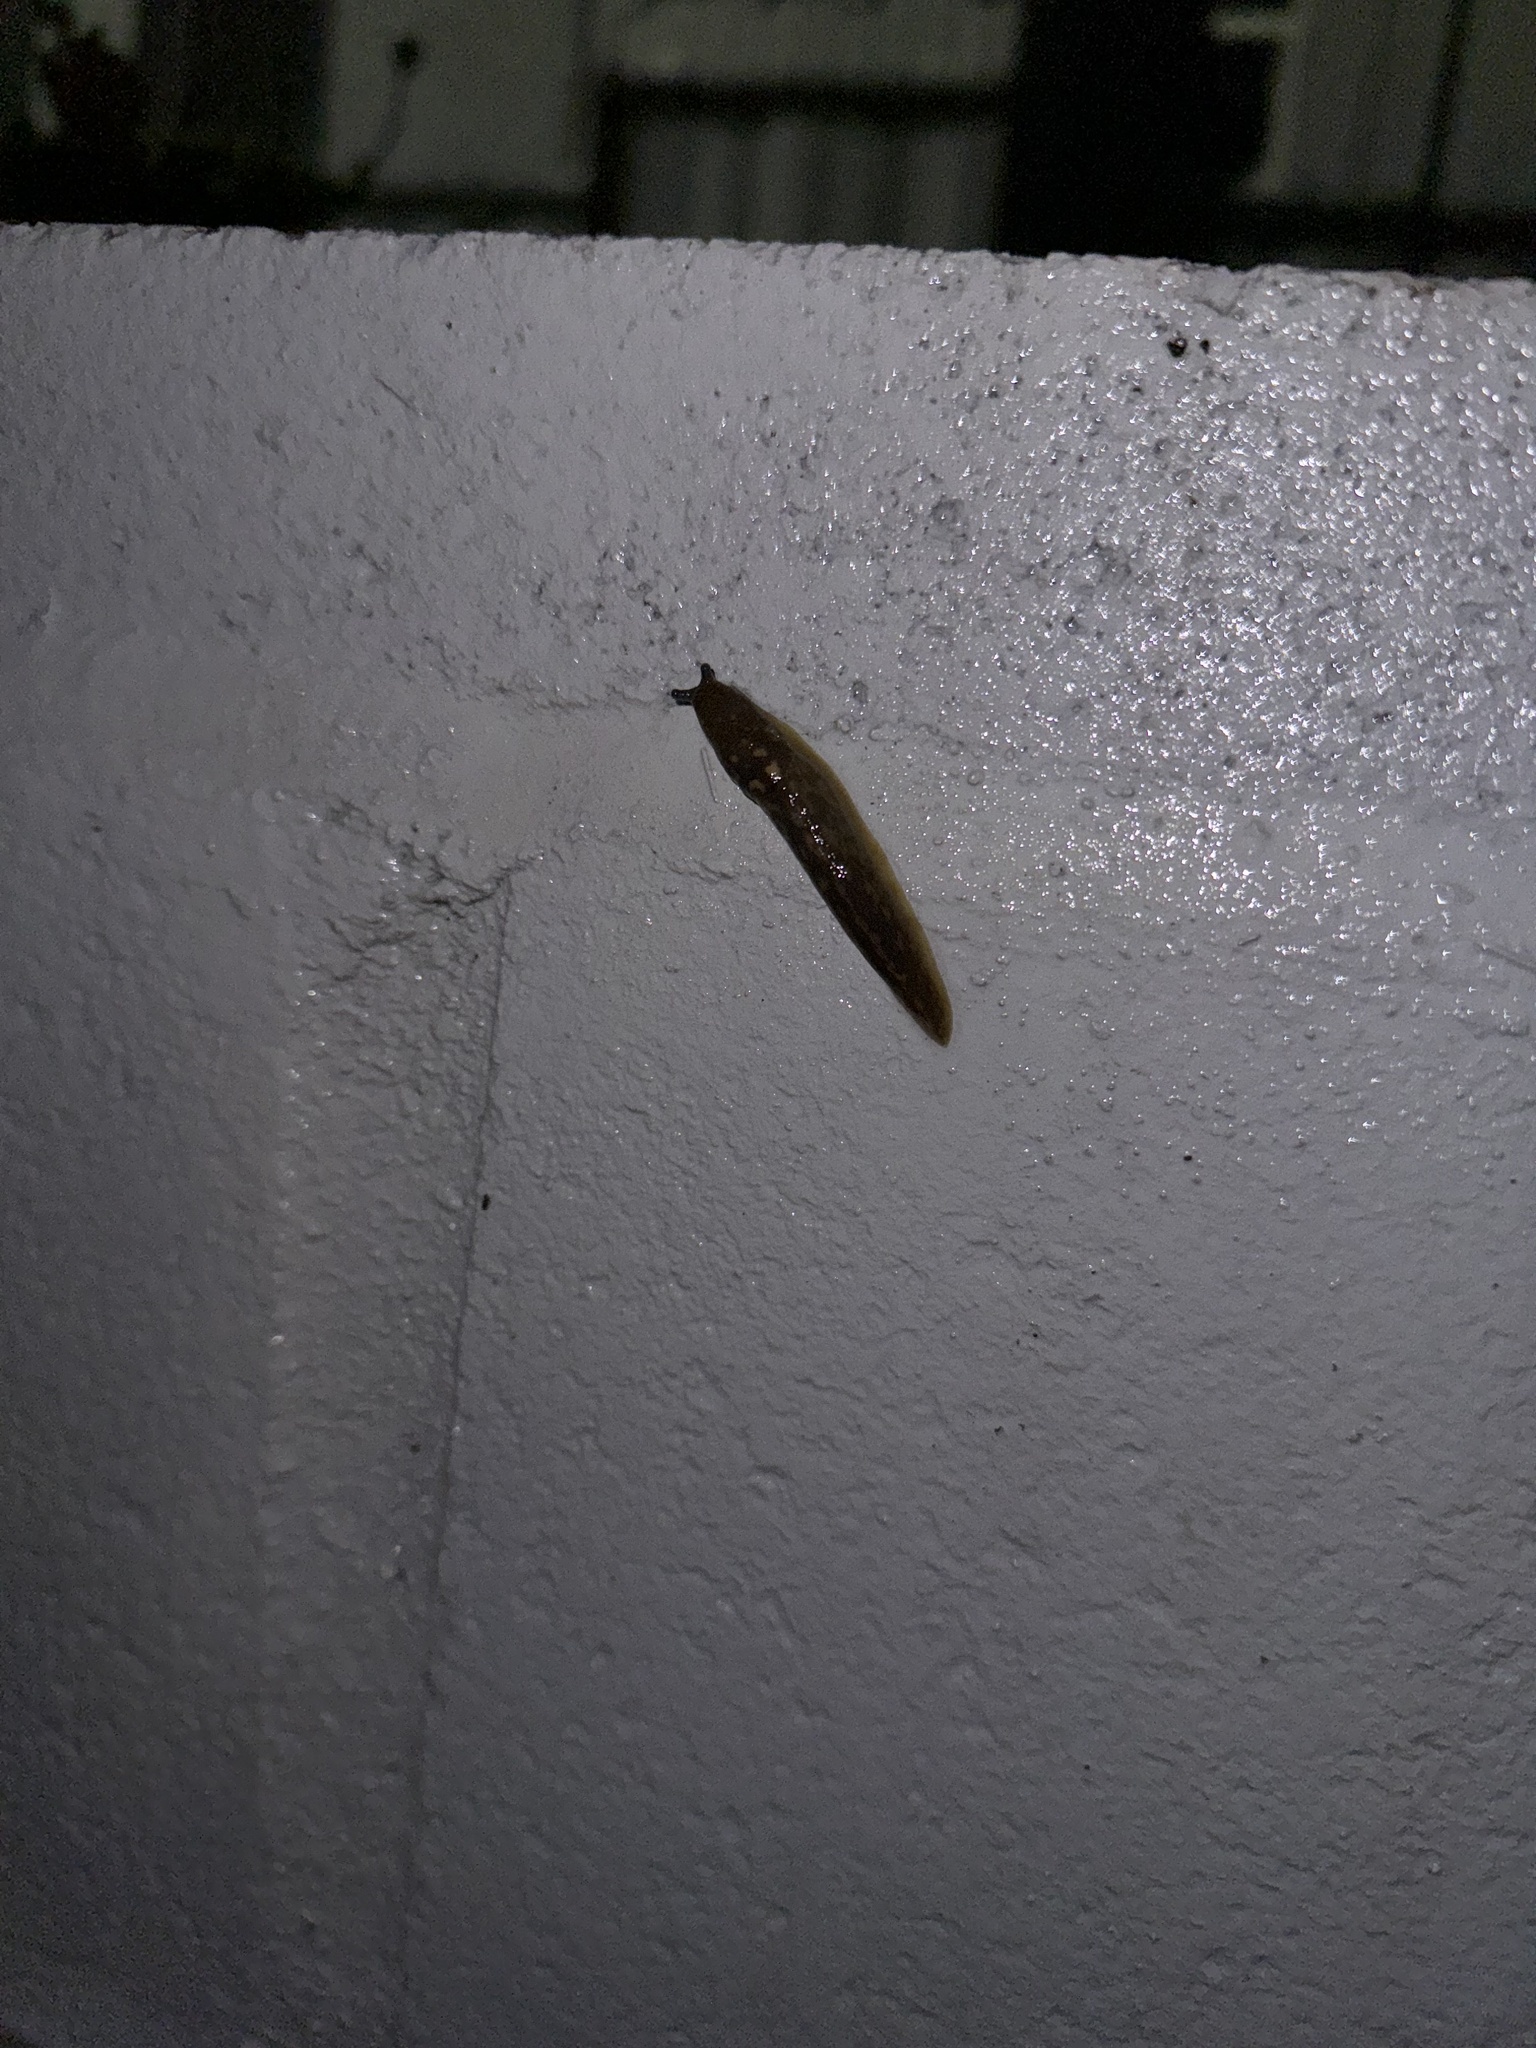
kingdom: Animalia
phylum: Mollusca
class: Gastropoda
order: Stylommatophora
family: Limacidae
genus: Limacus
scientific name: Limacus flavus
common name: Yellow gardenslug
